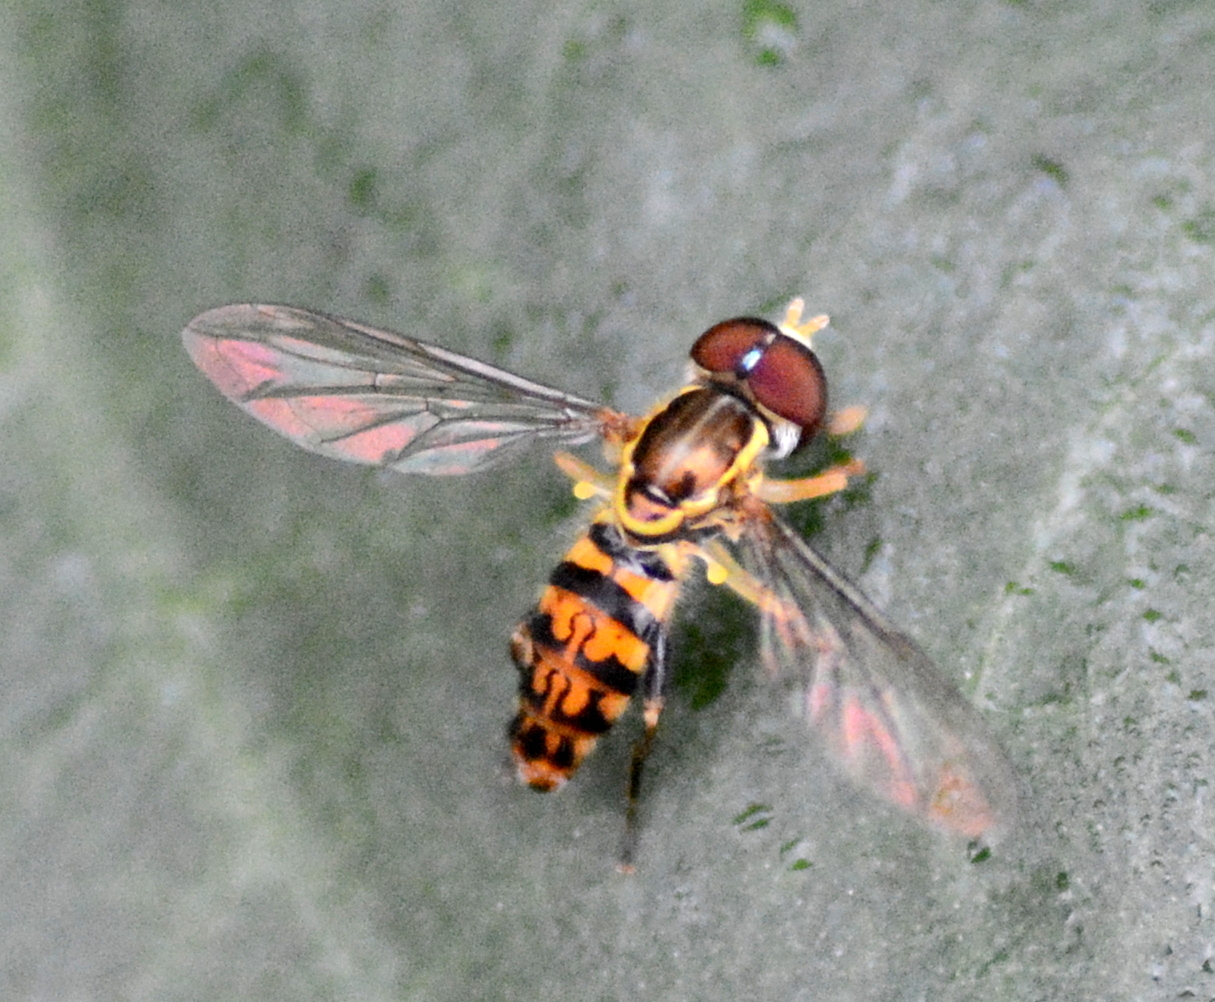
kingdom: Animalia
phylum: Arthropoda
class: Insecta
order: Diptera
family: Syrphidae
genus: Toxomerus
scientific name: Toxomerus geminatus
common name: Eastern calligrapher
